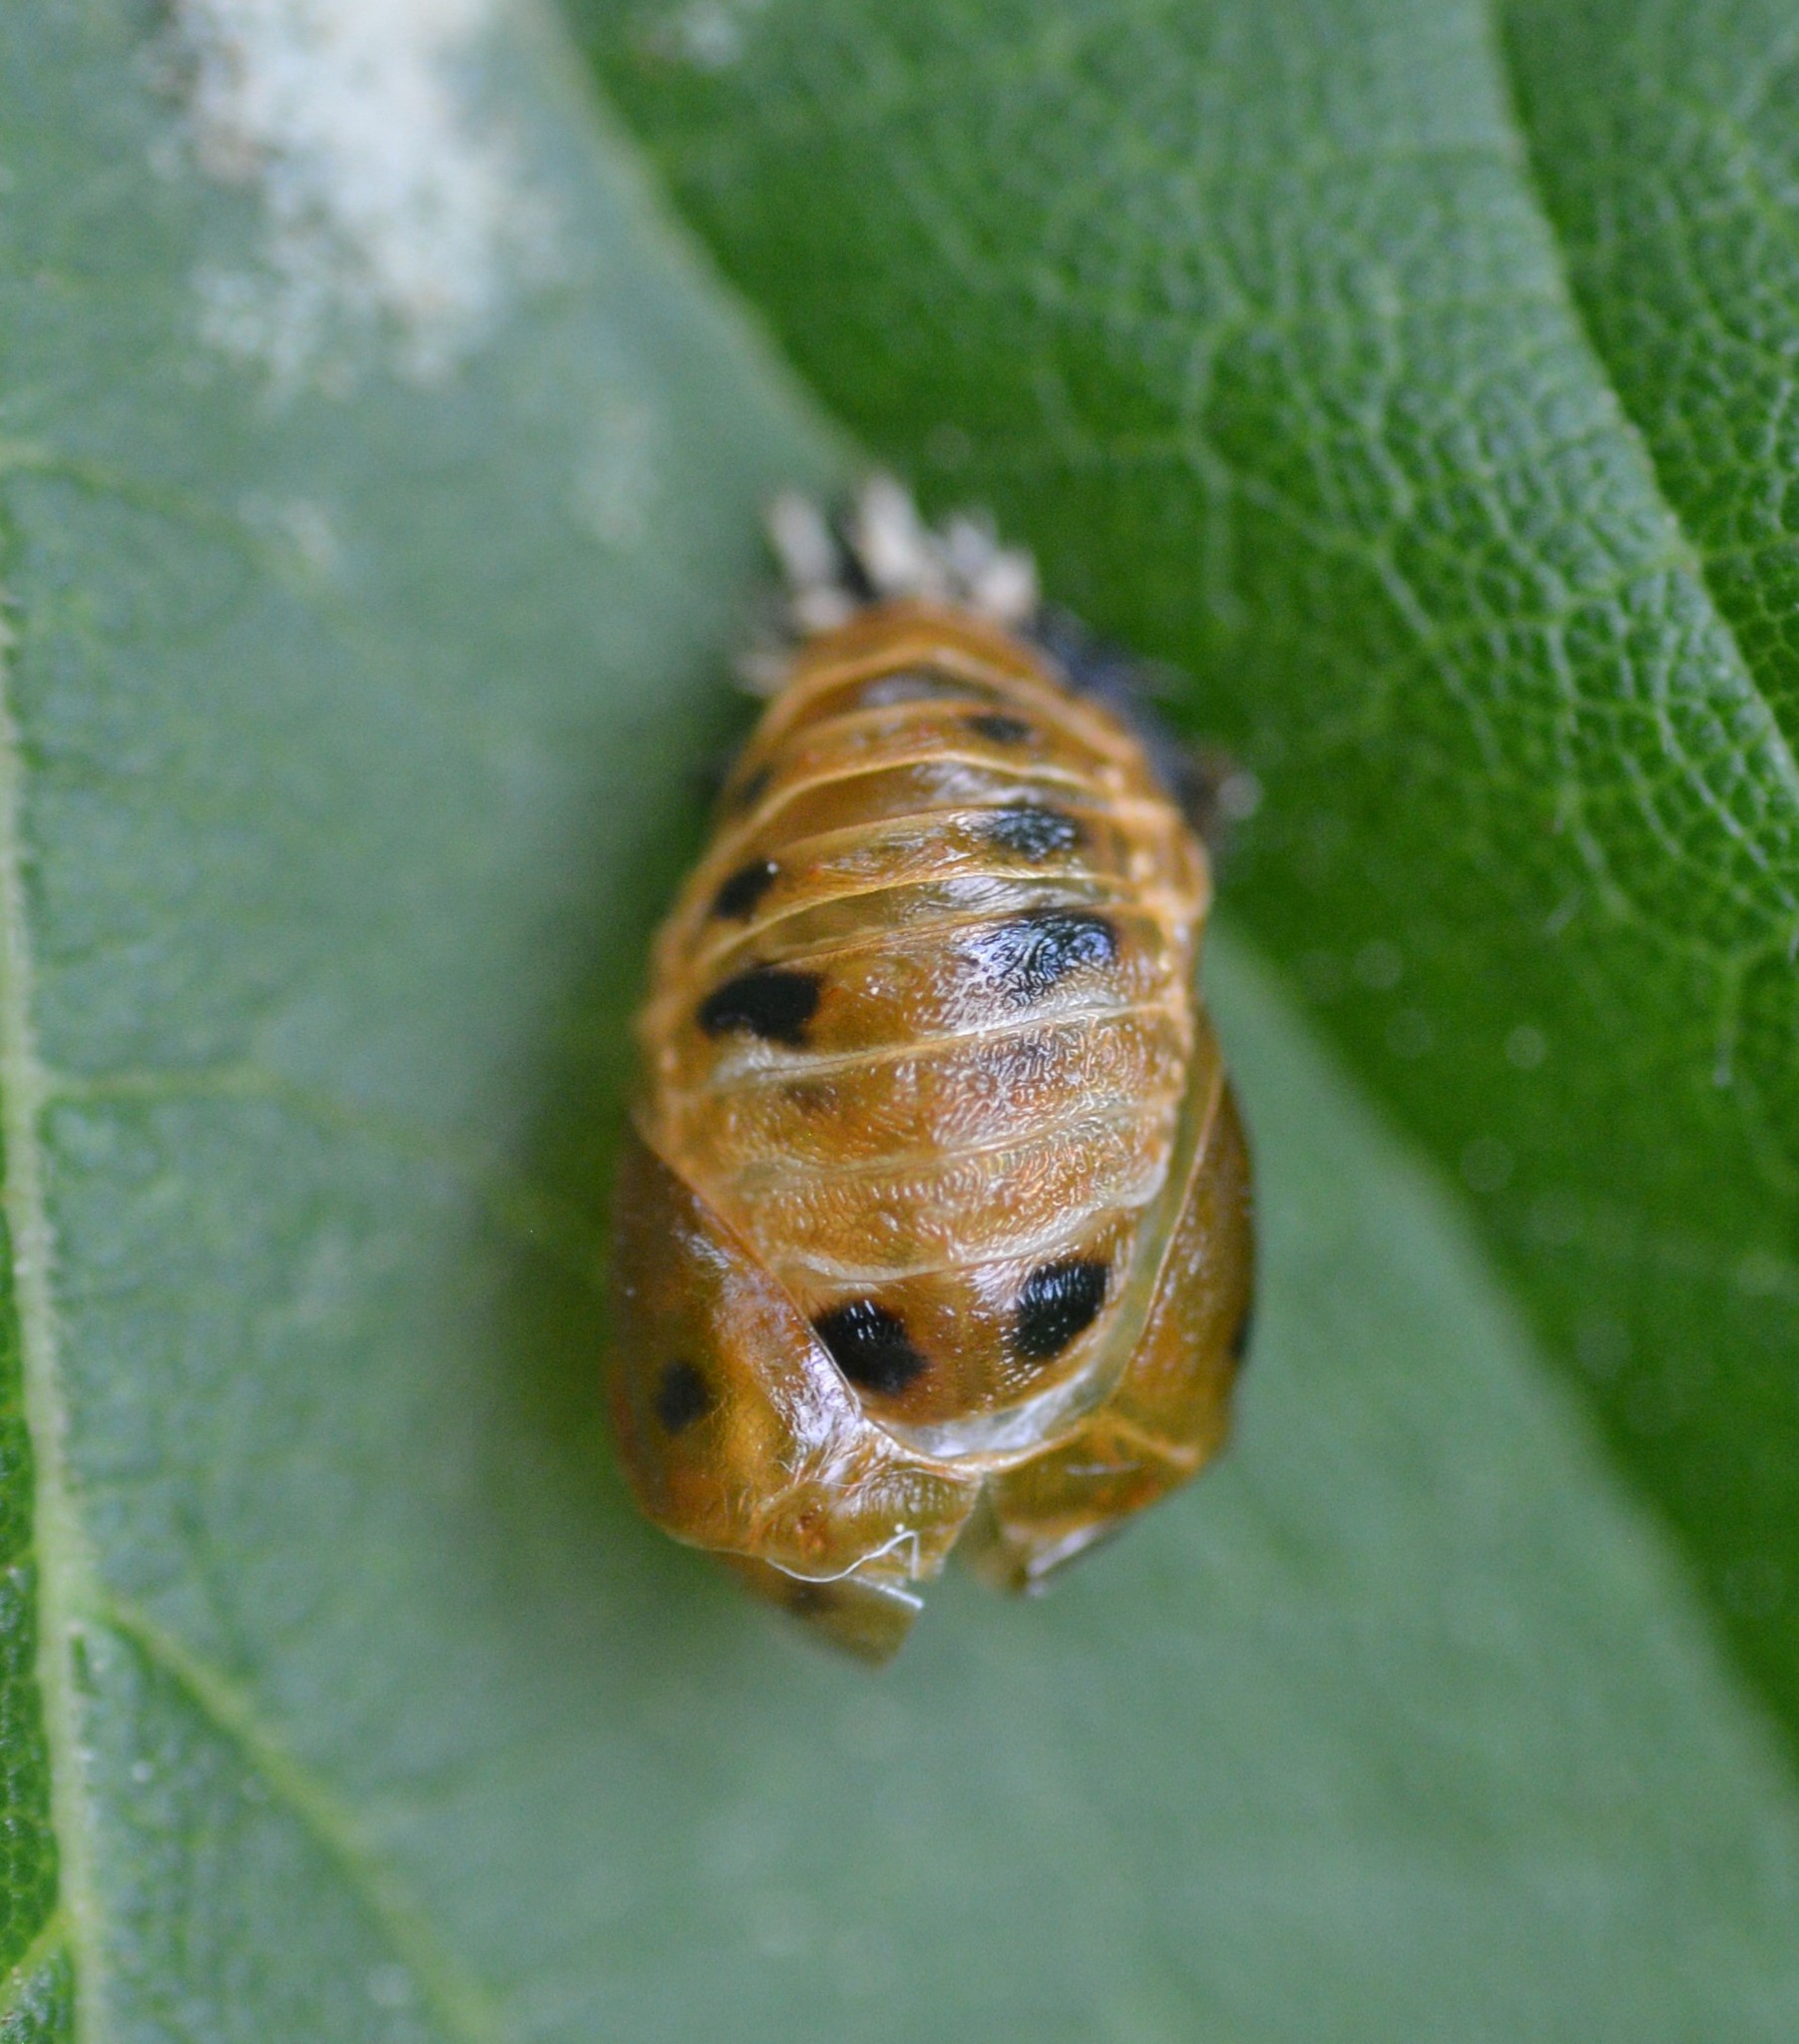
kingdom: Animalia
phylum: Arthropoda
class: Insecta
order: Coleoptera
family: Coccinellidae
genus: Harmonia
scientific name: Harmonia axyridis
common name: Harlequin ladybird
